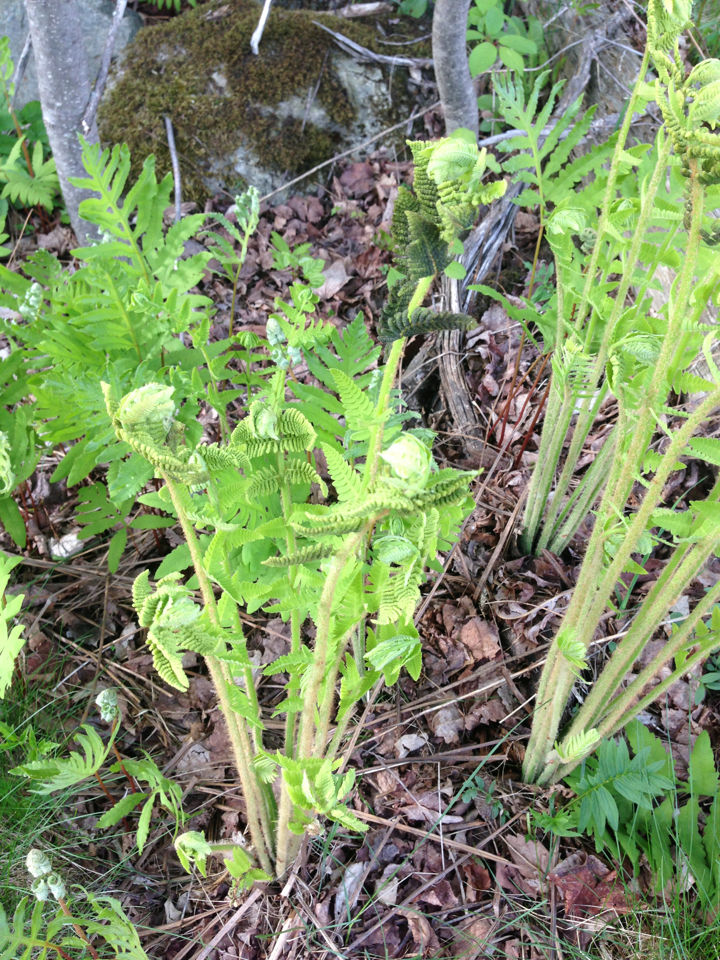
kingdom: Plantae
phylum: Tracheophyta
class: Polypodiopsida
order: Osmundales
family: Osmundaceae
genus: Claytosmunda
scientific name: Claytosmunda claytoniana
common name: Clayton's fern
